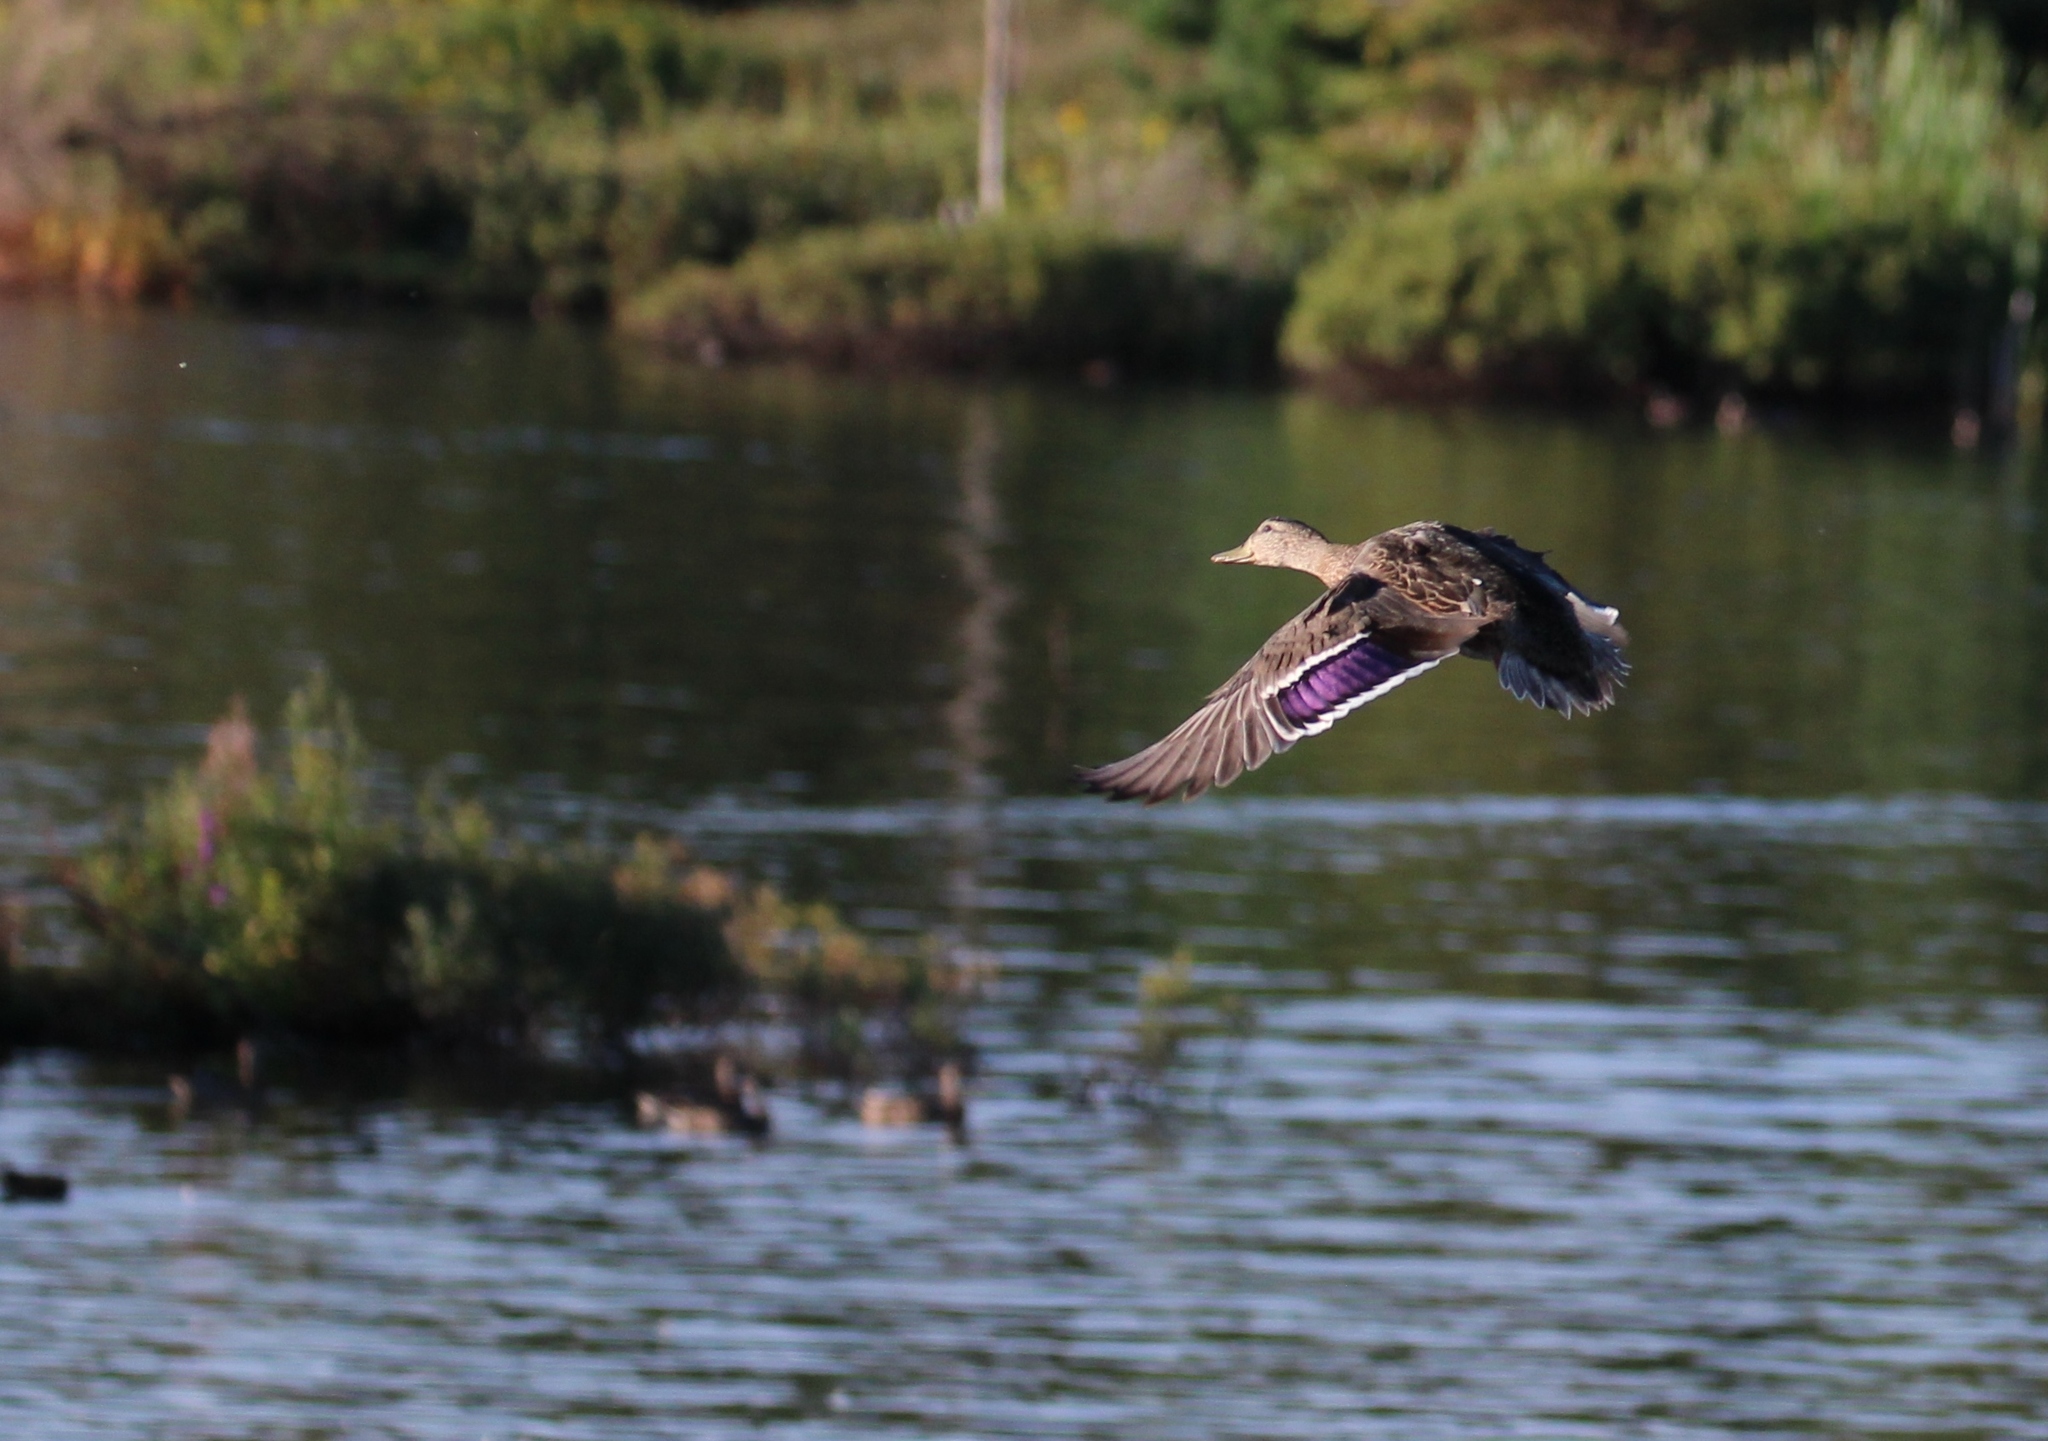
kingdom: Animalia
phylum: Chordata
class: Aves
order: Anseriformes
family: Anatidae
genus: Anas
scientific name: Anas platyrhynchos
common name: Mallard
